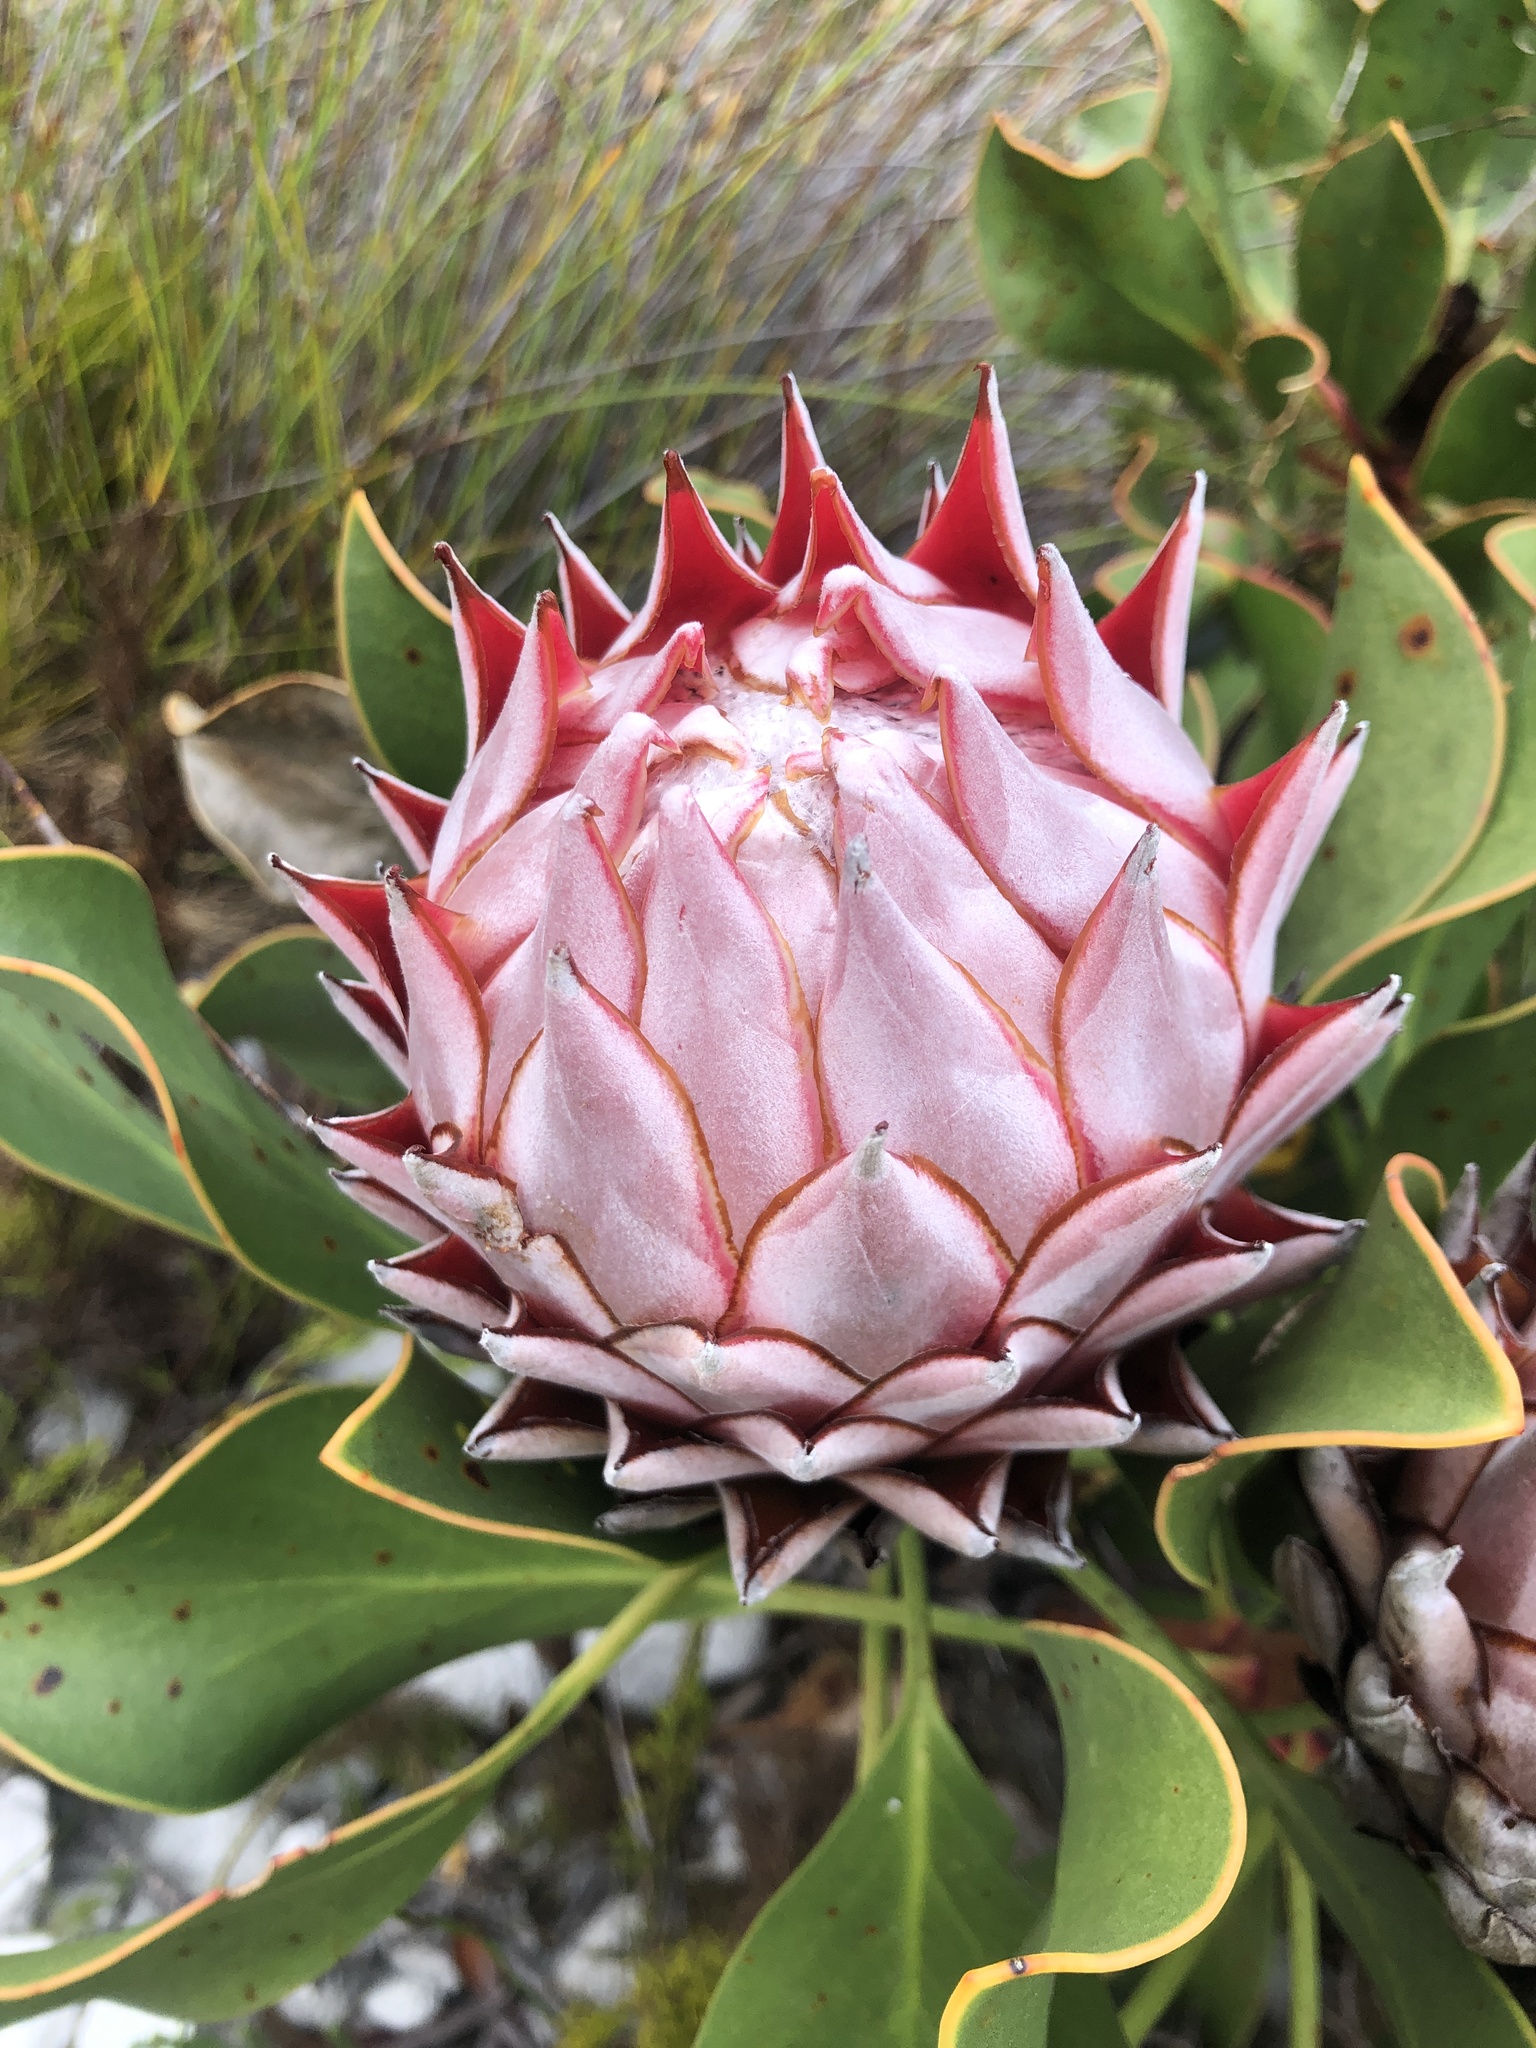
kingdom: Plantae
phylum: Tracheophyta
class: Magnoliopsida
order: Proteales
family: Proteaceae
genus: Protea
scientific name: Protea cynaroides
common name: King protea
